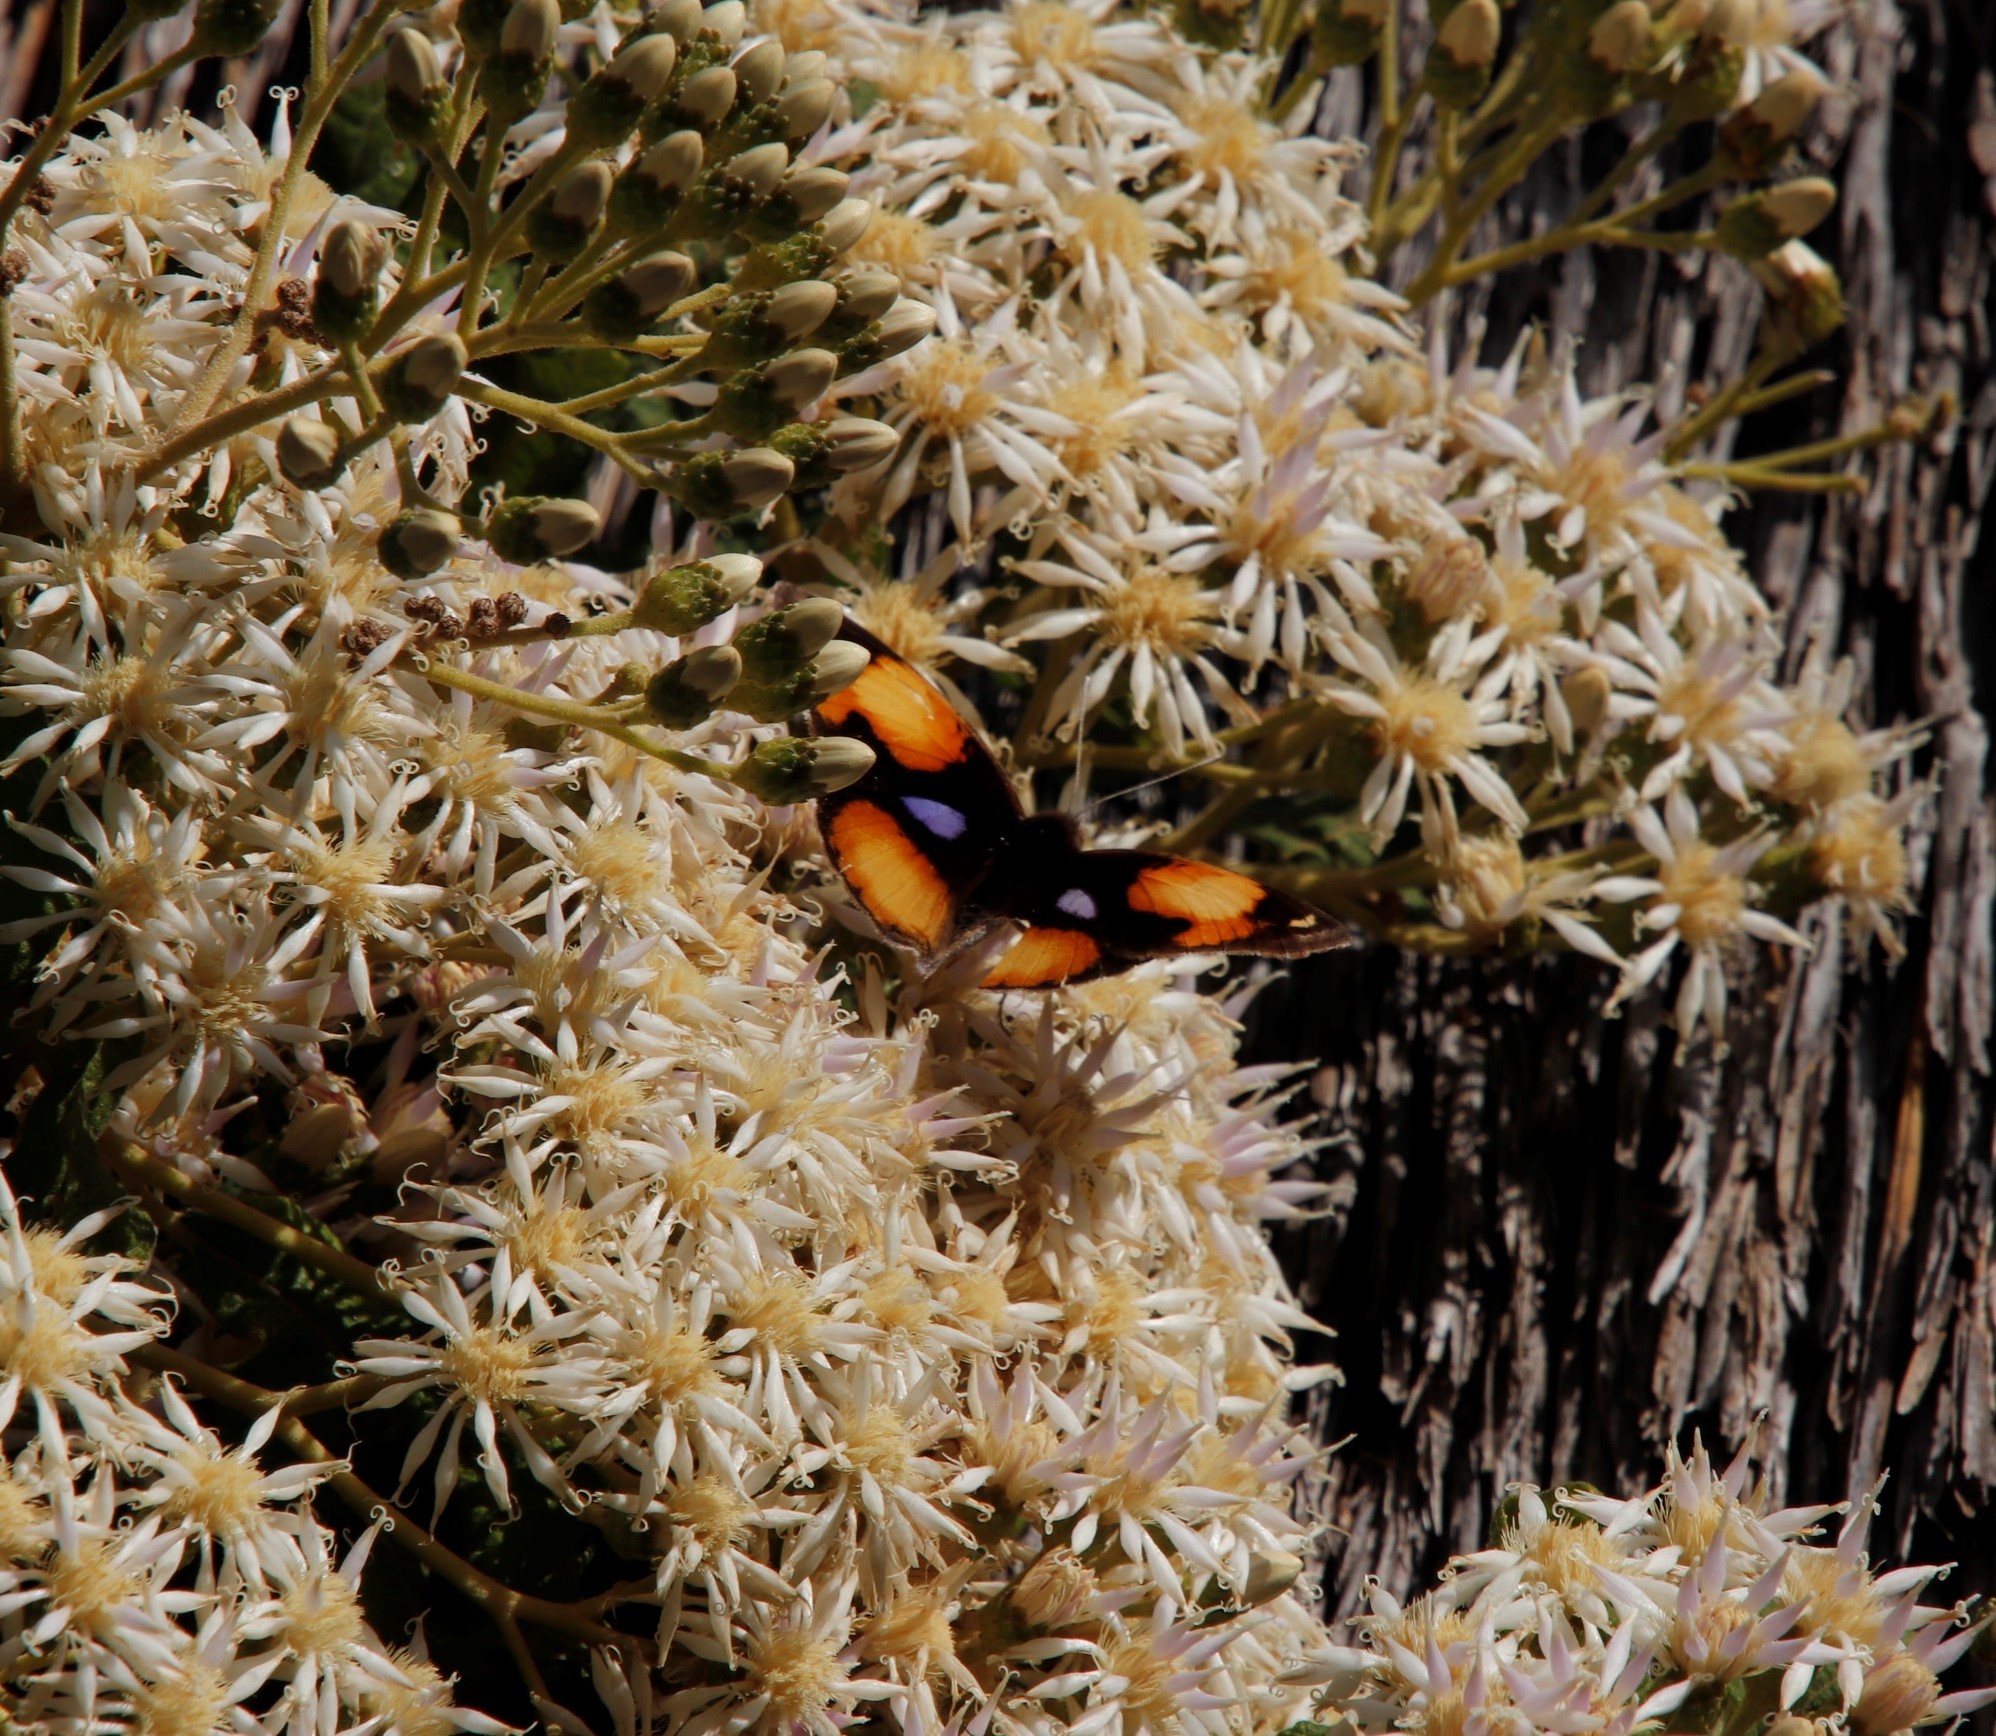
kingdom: Animalia
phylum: Arthropoda
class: Insecta
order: Lepidoptera
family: Nymphalidae
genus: Junonia
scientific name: Junonia hierta
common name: Yellow pansy
